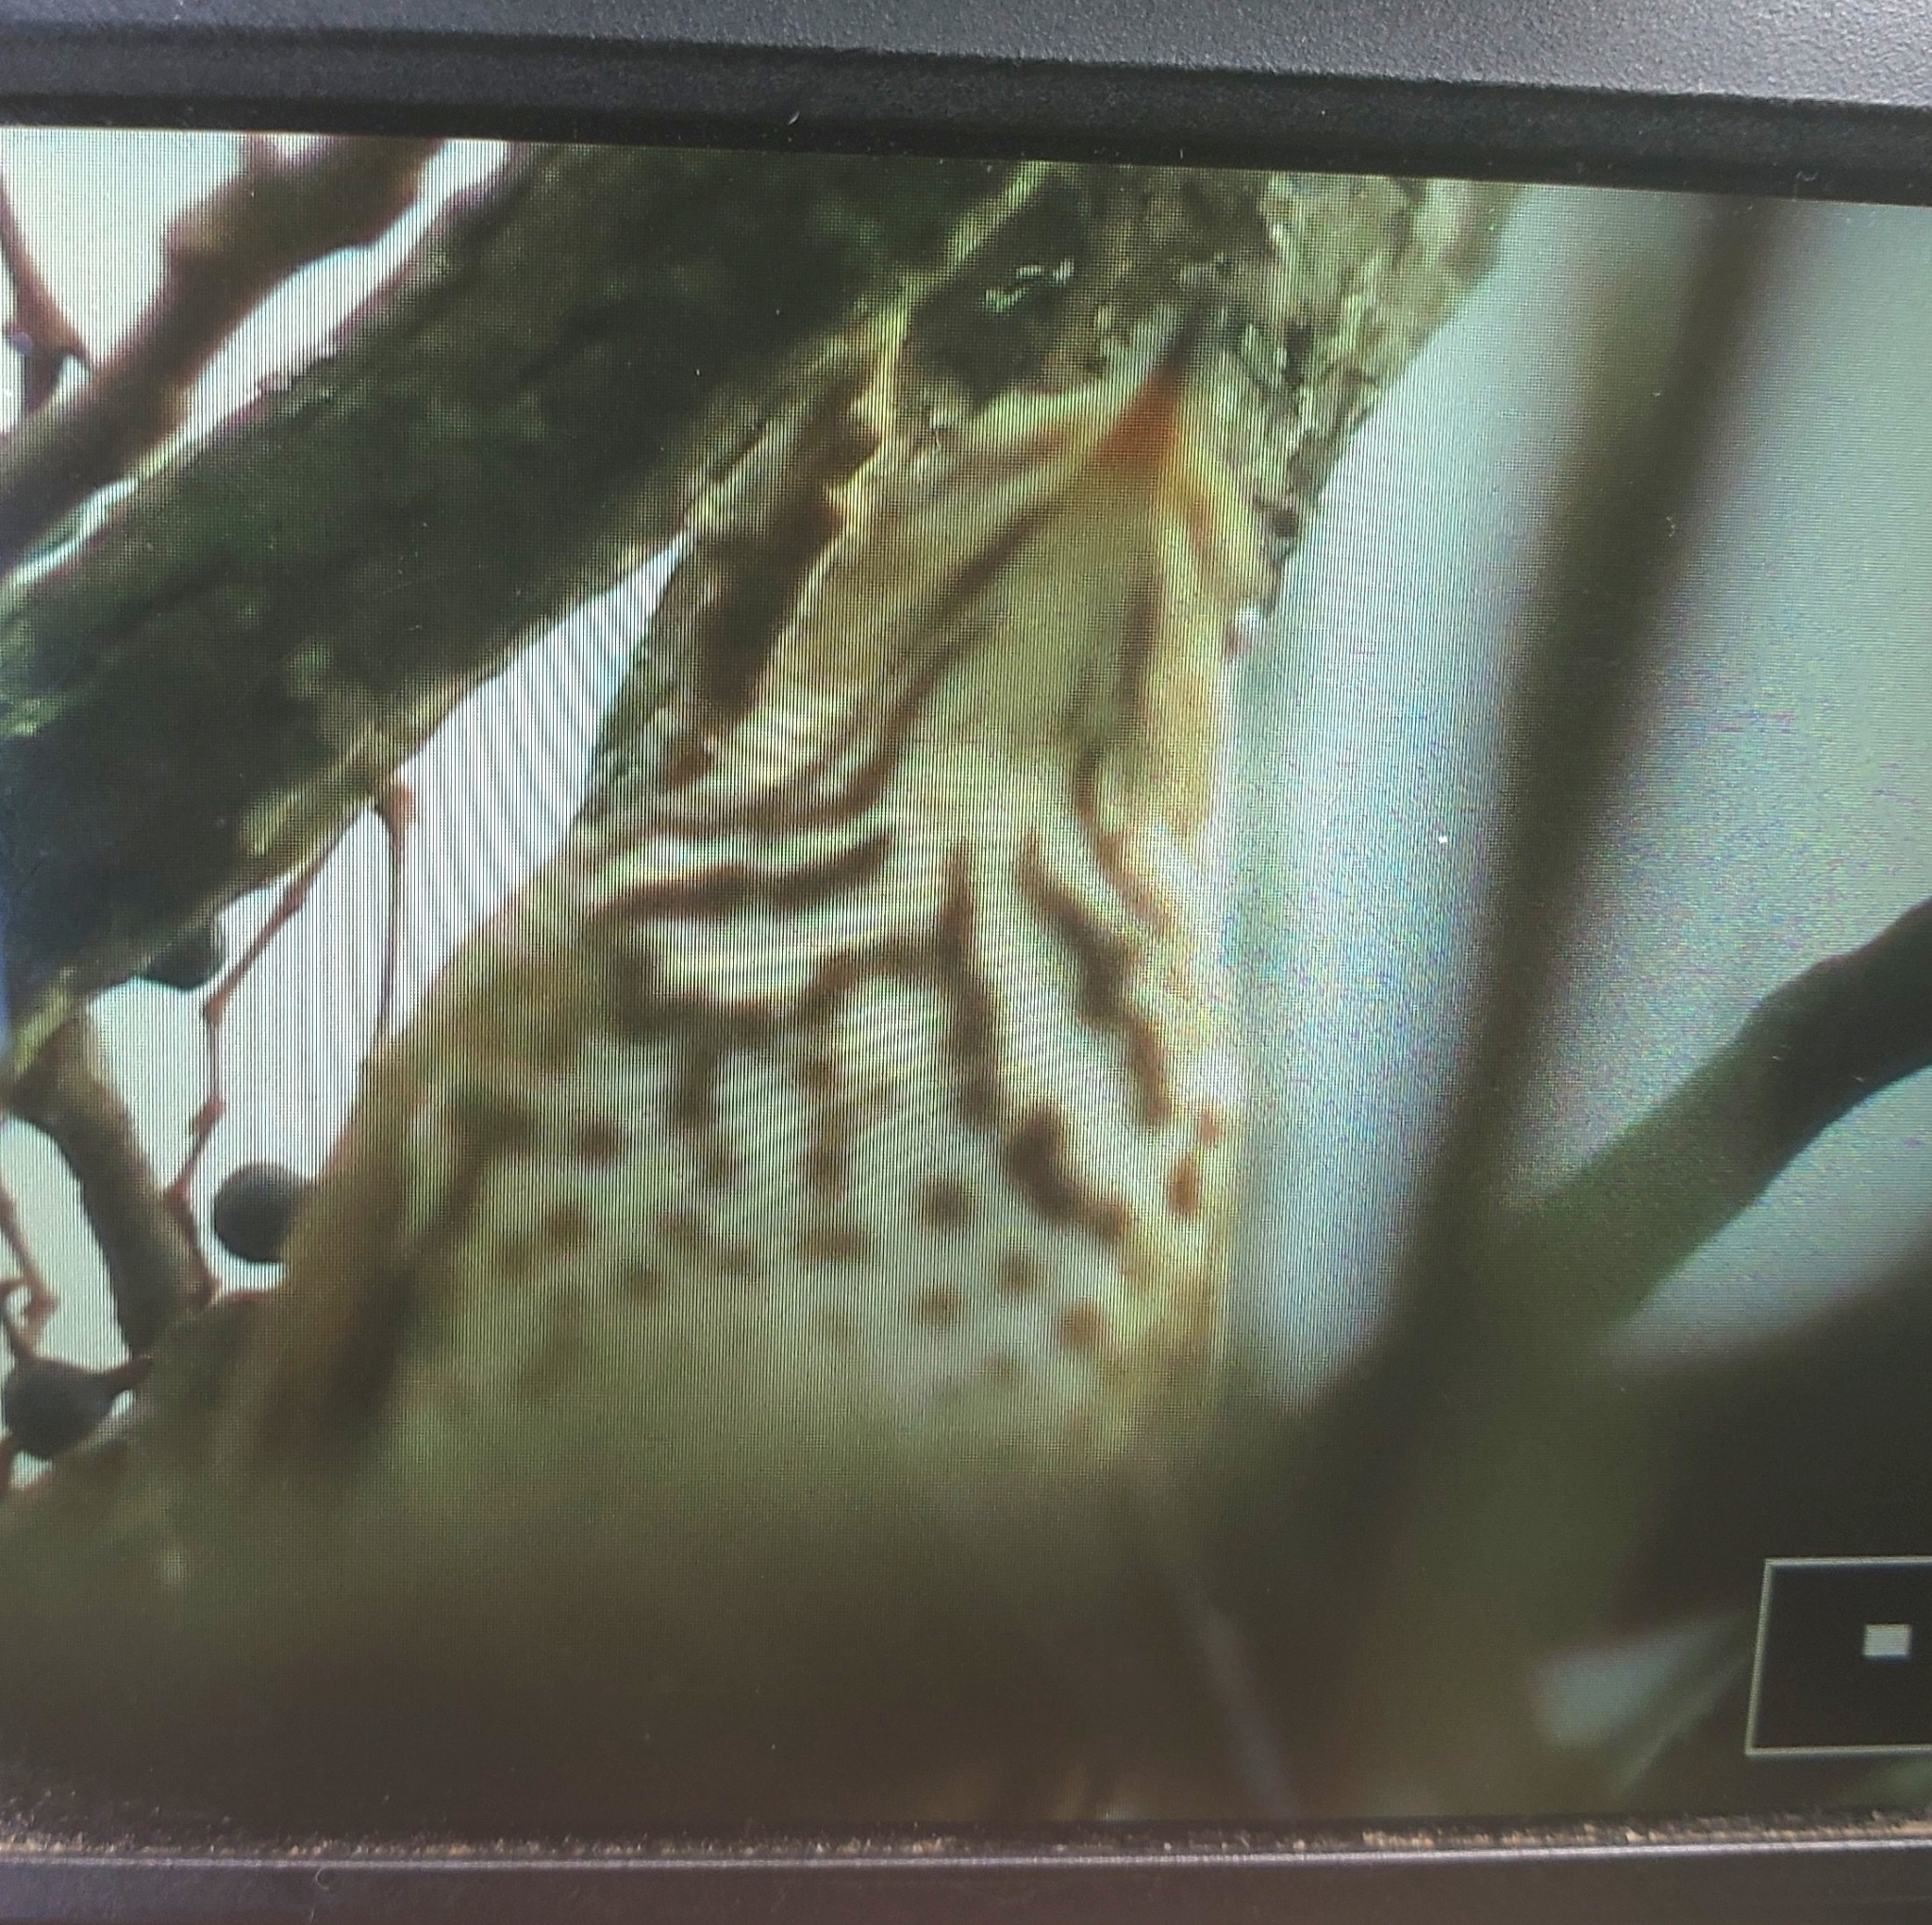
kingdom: Animalia
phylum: Chordata
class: Aves
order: Passeriformes
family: Turdidae
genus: Catharus
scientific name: Catharus guttatus
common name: Hermit thrush
